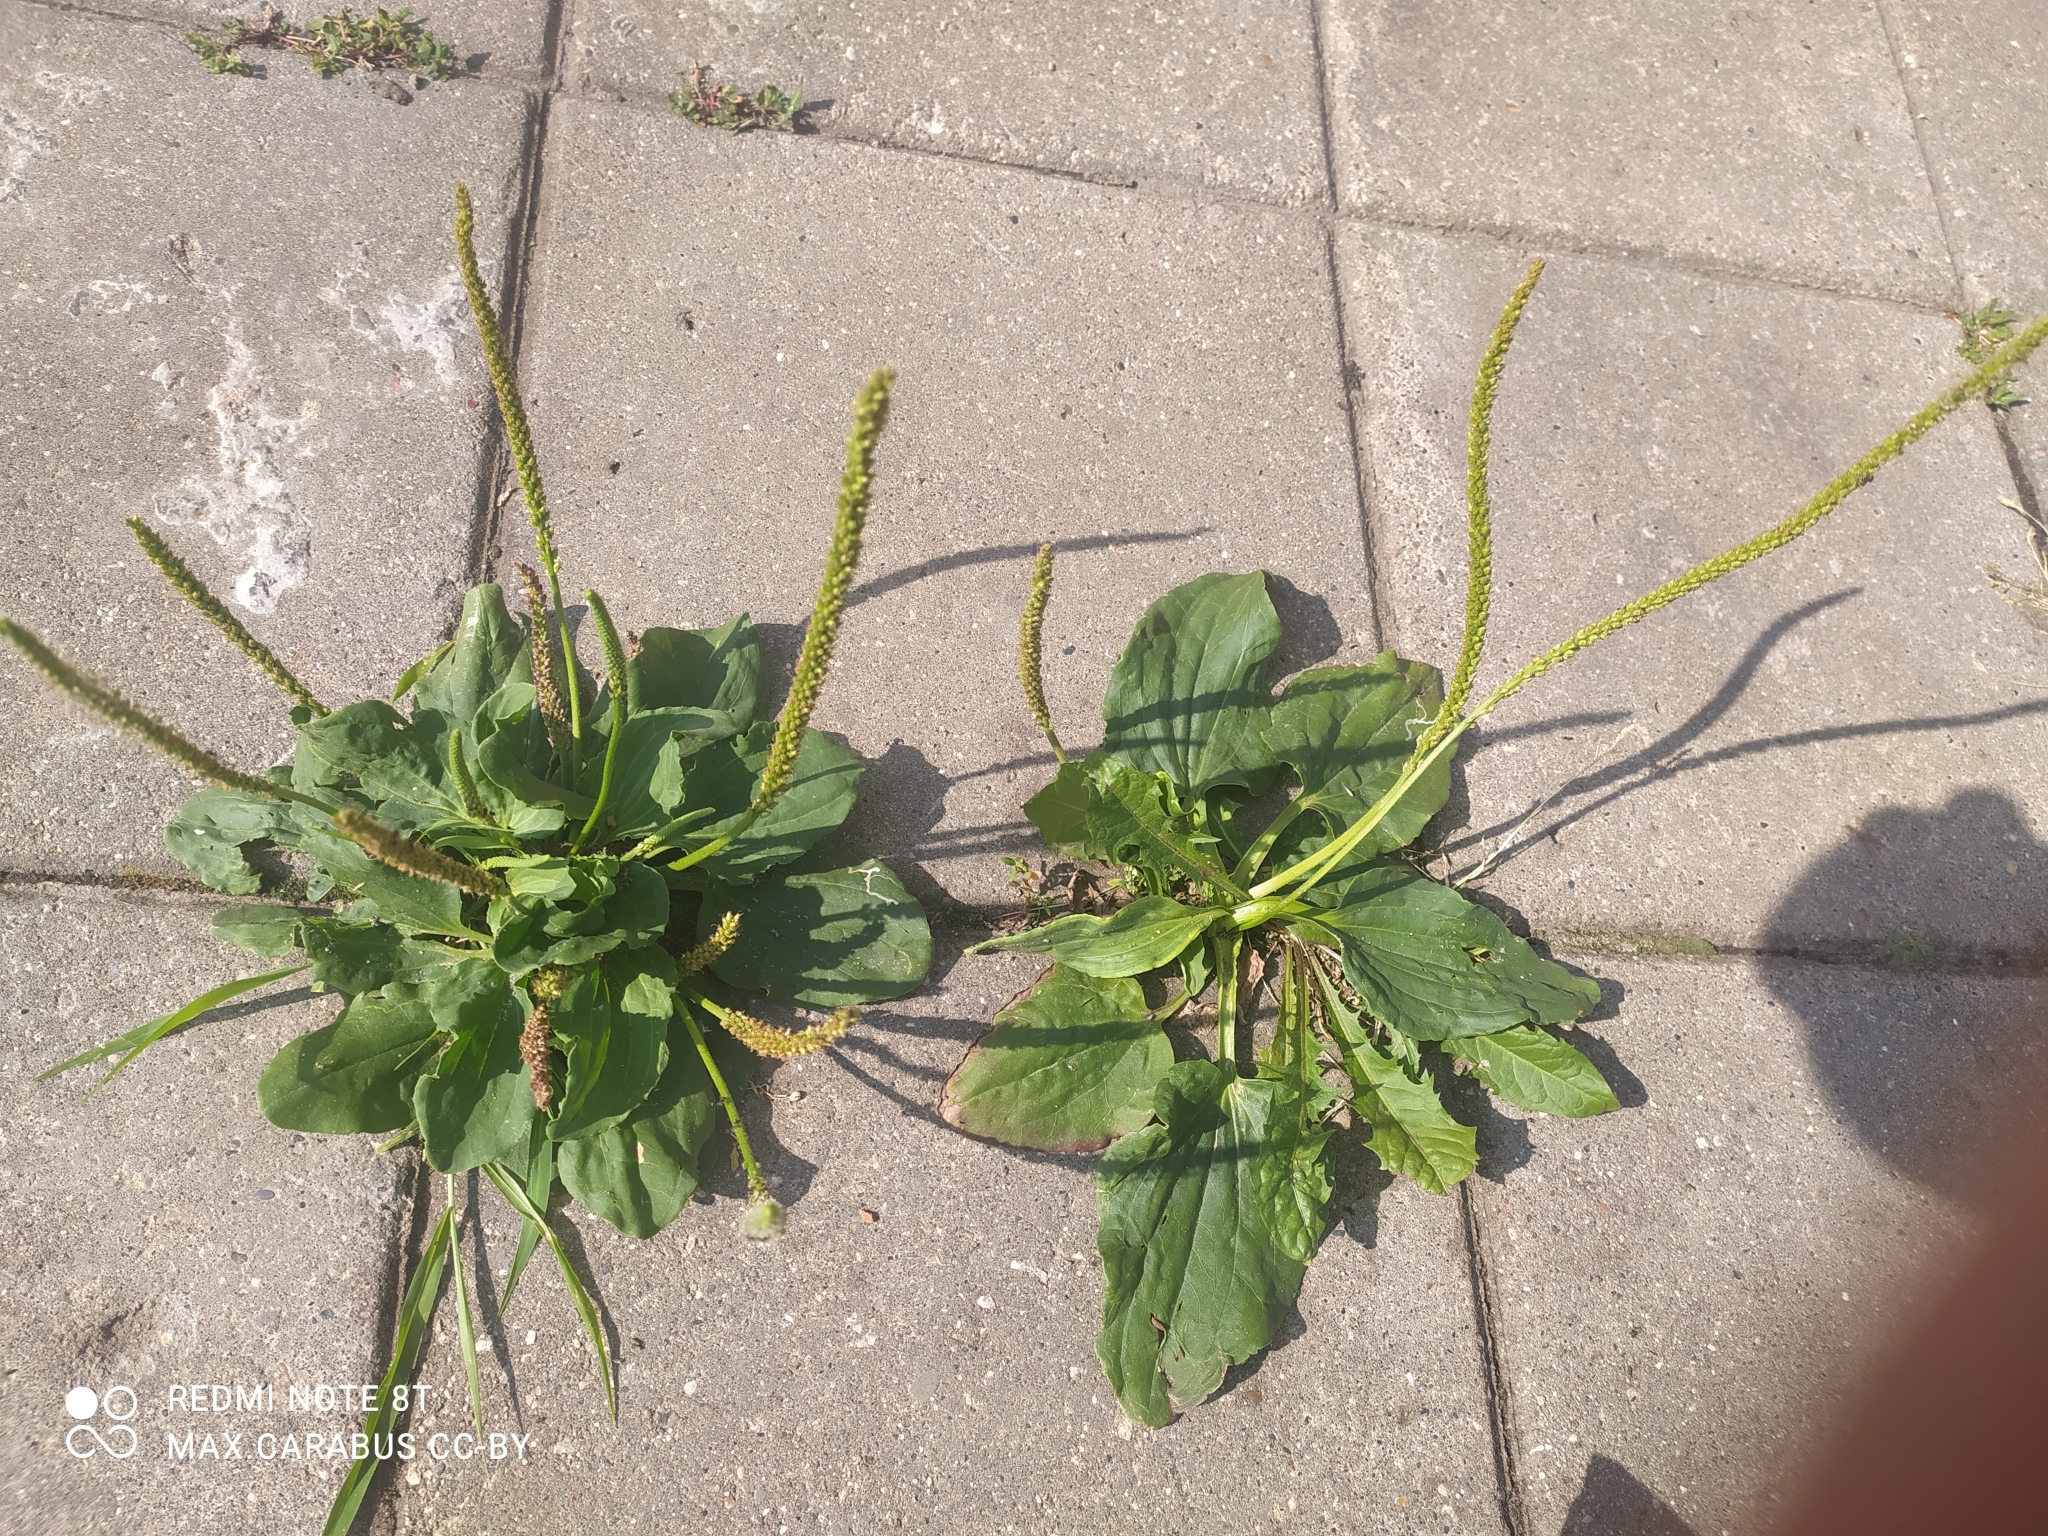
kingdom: Plantae
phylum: Tracheophyta
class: Magnoliopsida
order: Lamiales
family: Plantaginaceae
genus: Plantago
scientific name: Plantago major
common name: Common plantain
